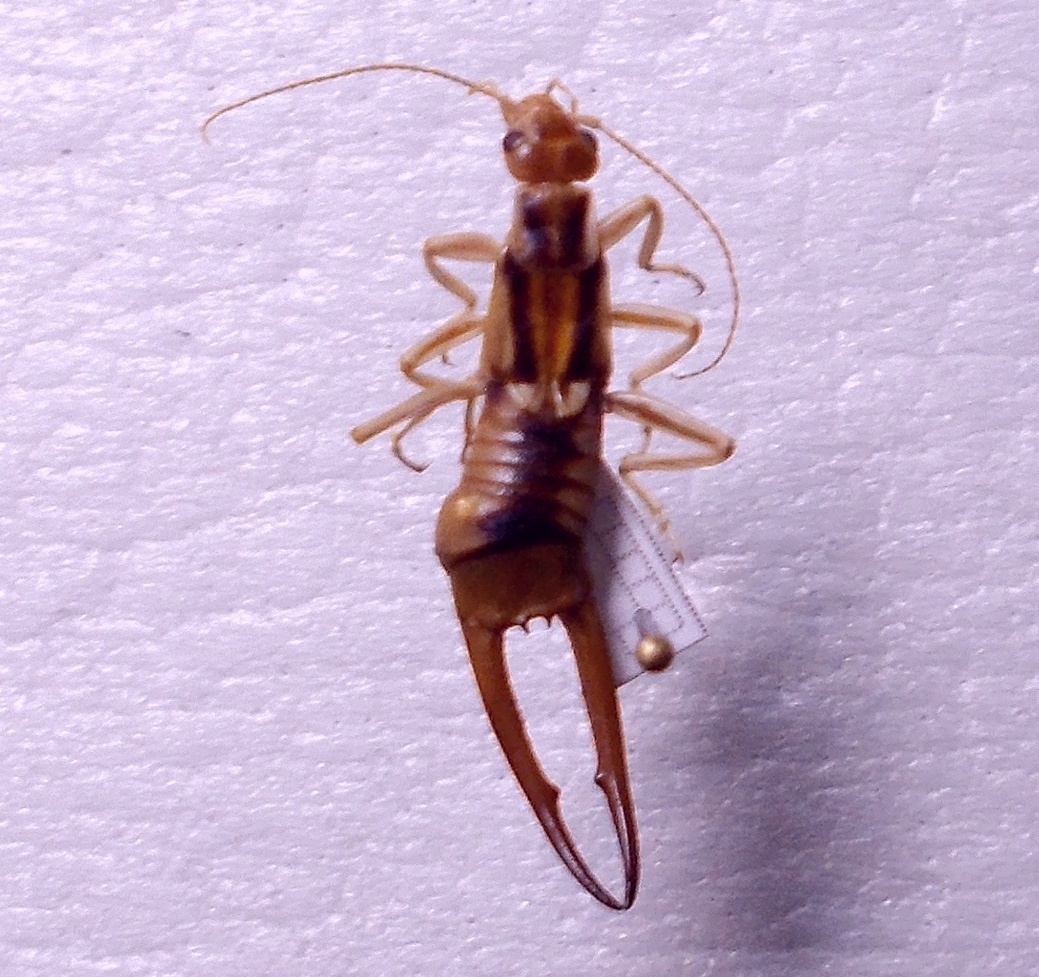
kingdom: Animalia
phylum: Arthropoda
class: Insecta
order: Dermaptera
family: Labiduridae
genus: Labidura
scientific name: Labidura riparia
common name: Striped earwig
